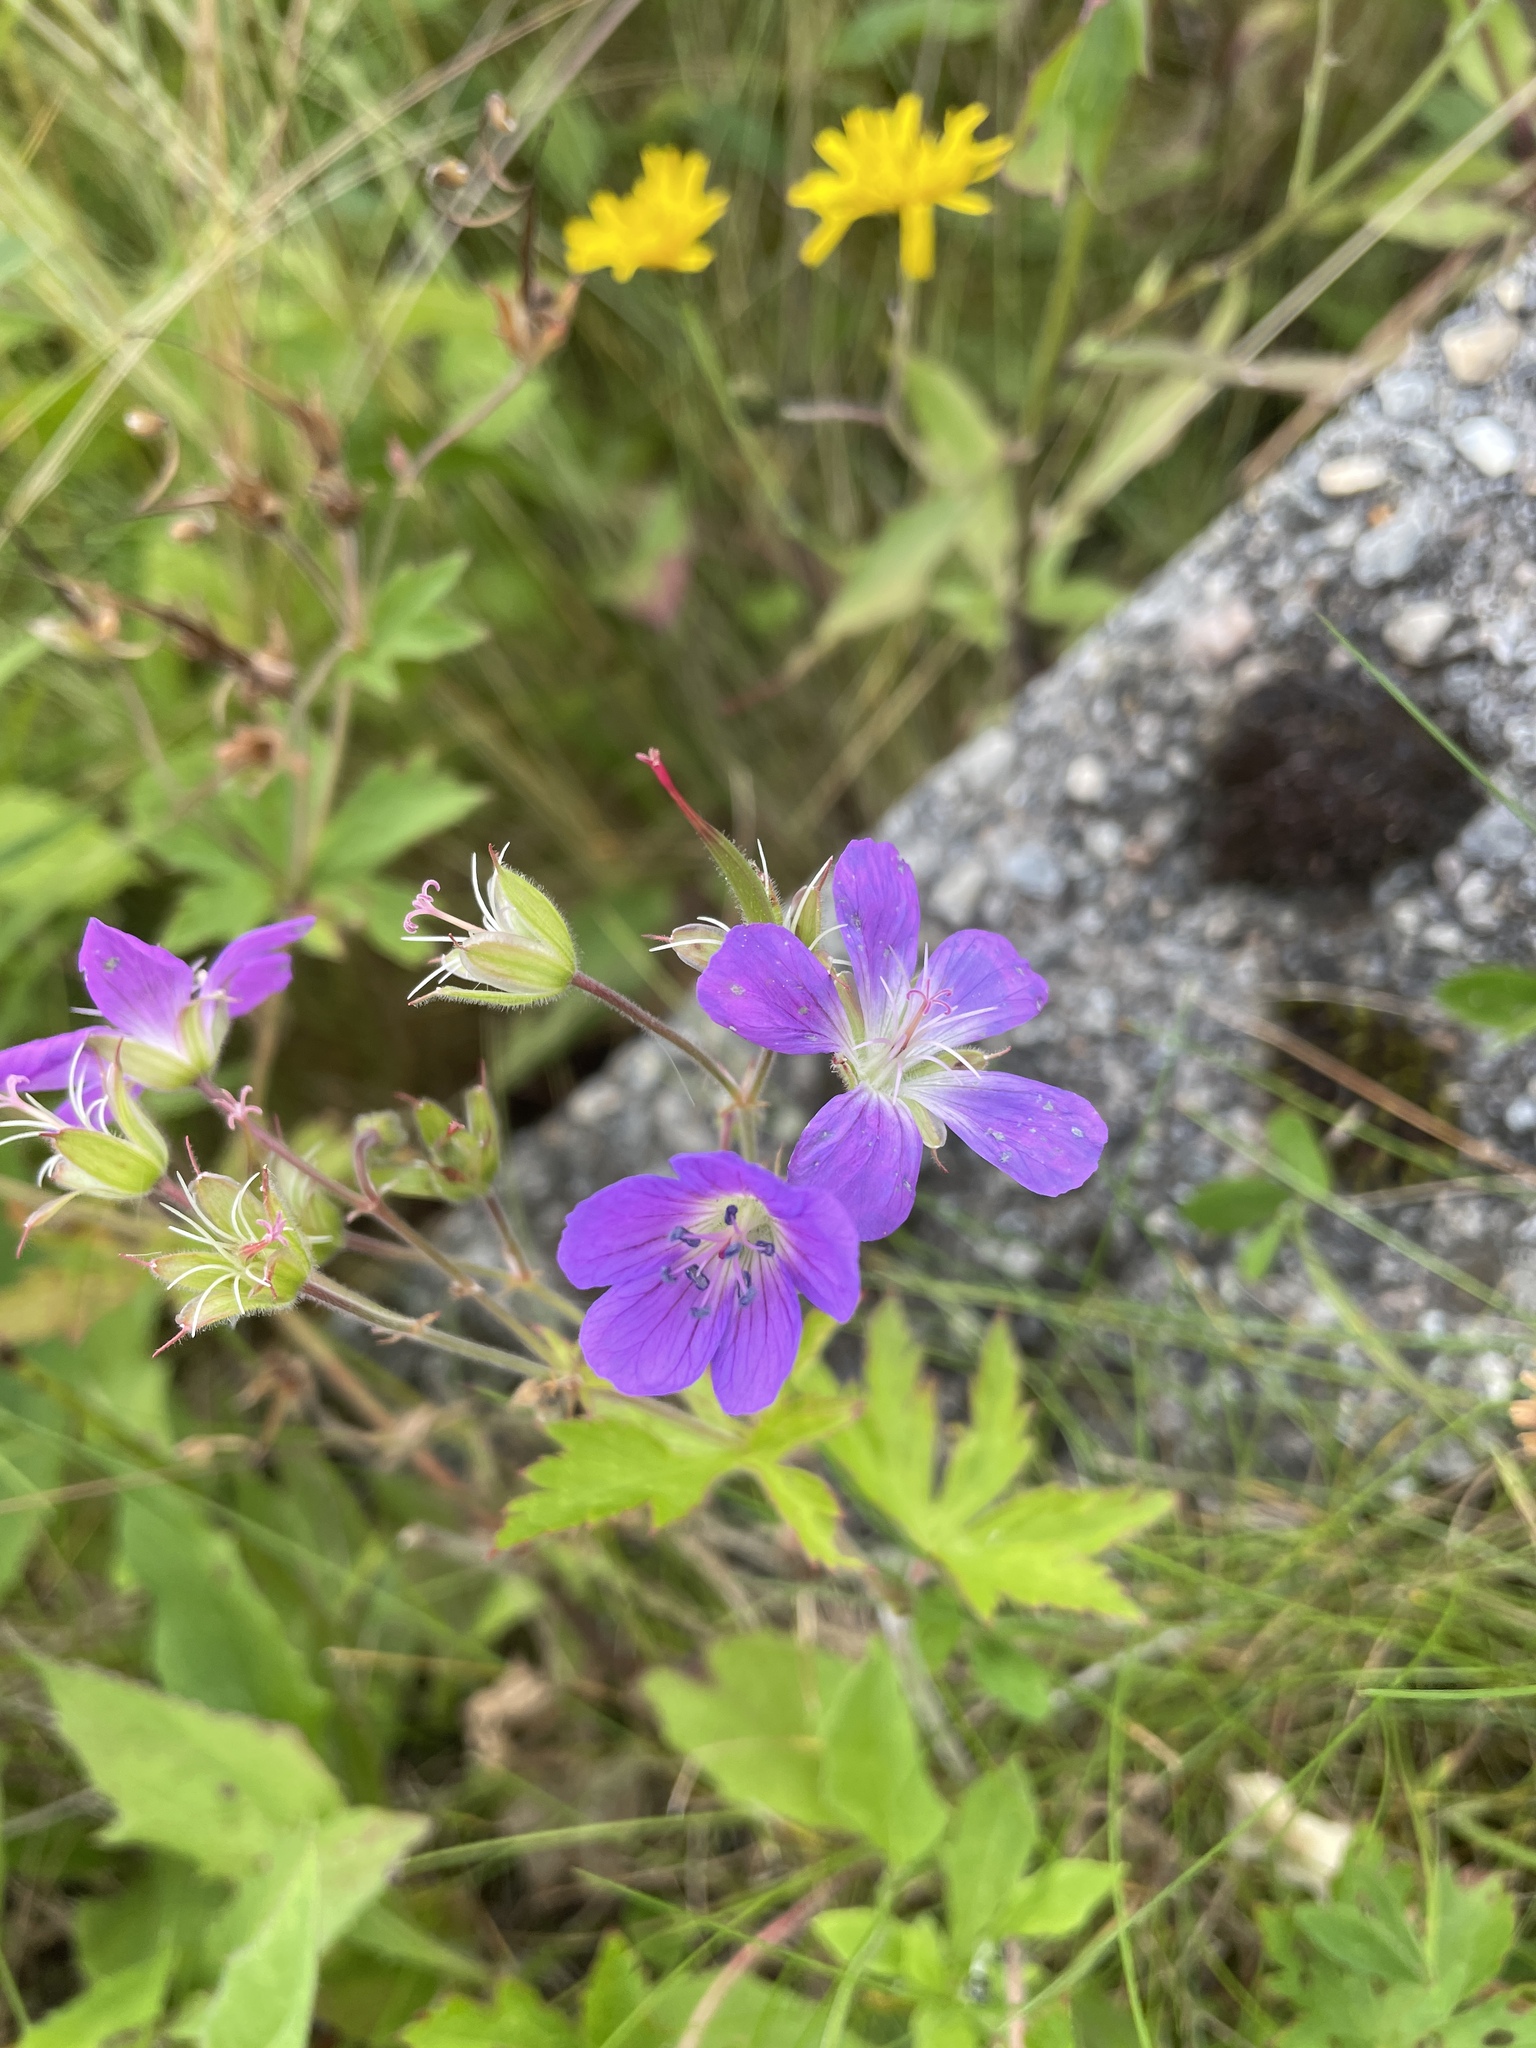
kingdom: Plantae
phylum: Tracheophyta
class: Magnoliopsida
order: Geraniales
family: Geraniaceae
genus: Geranium
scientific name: Geranium sylvaticum
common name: Wood crane's-bill
